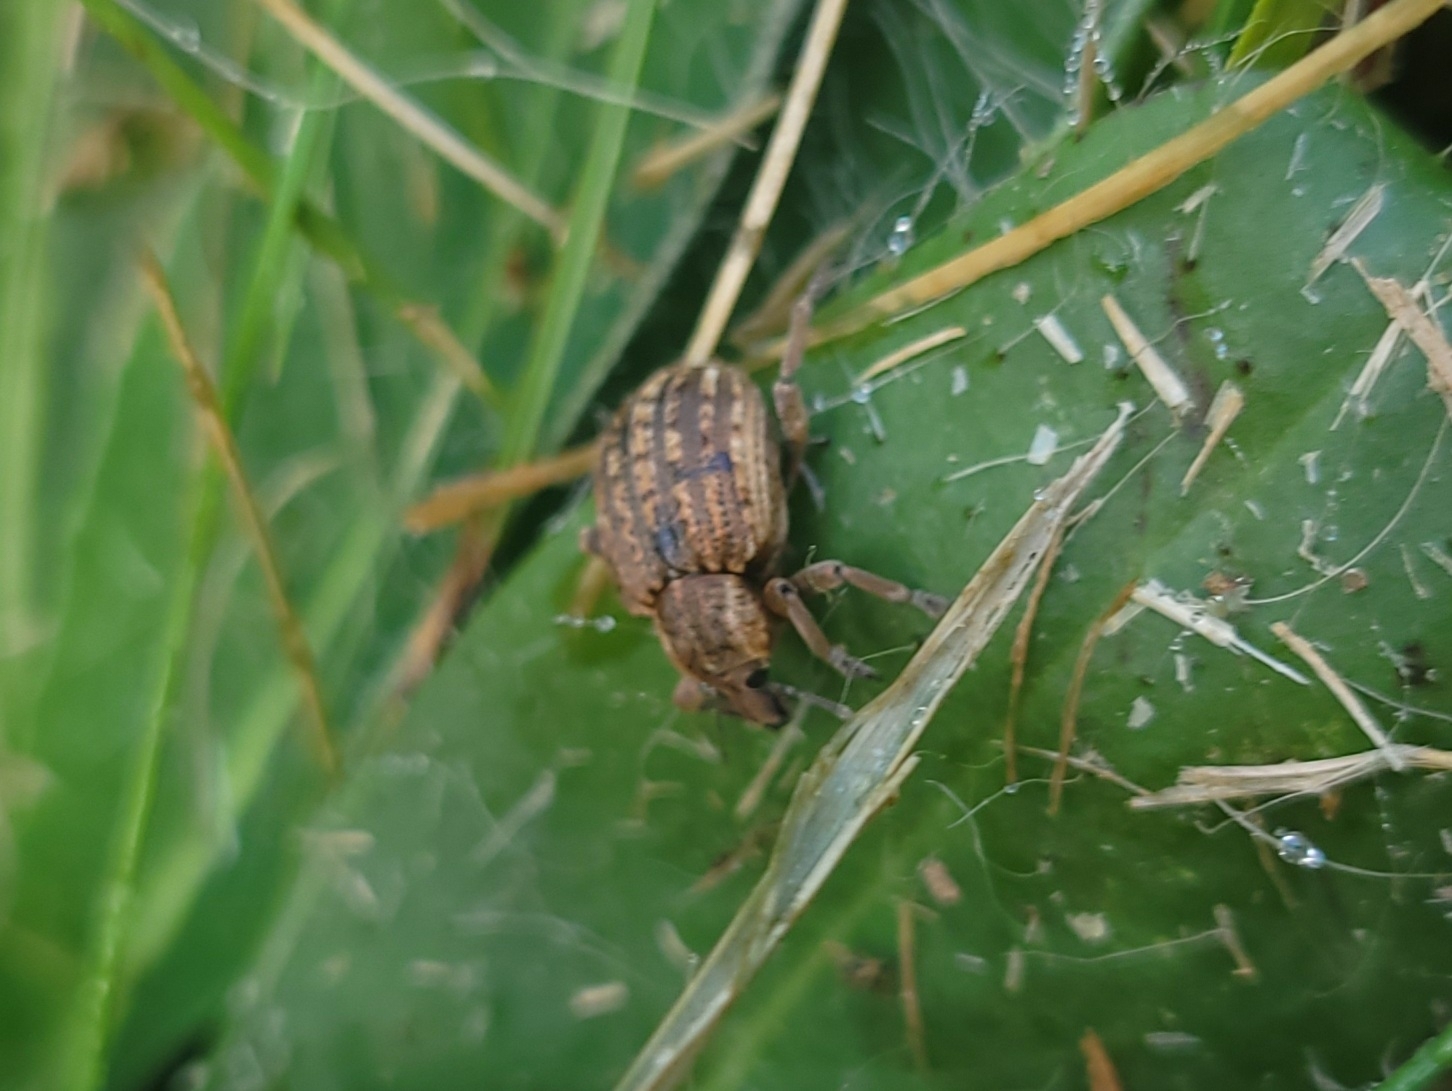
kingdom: Animalia
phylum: Arthropoda
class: Insecta
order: Coleoptera
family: Curculionidae
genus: Brachypera
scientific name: Brachypera zoilus
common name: Clover leaf weevil
